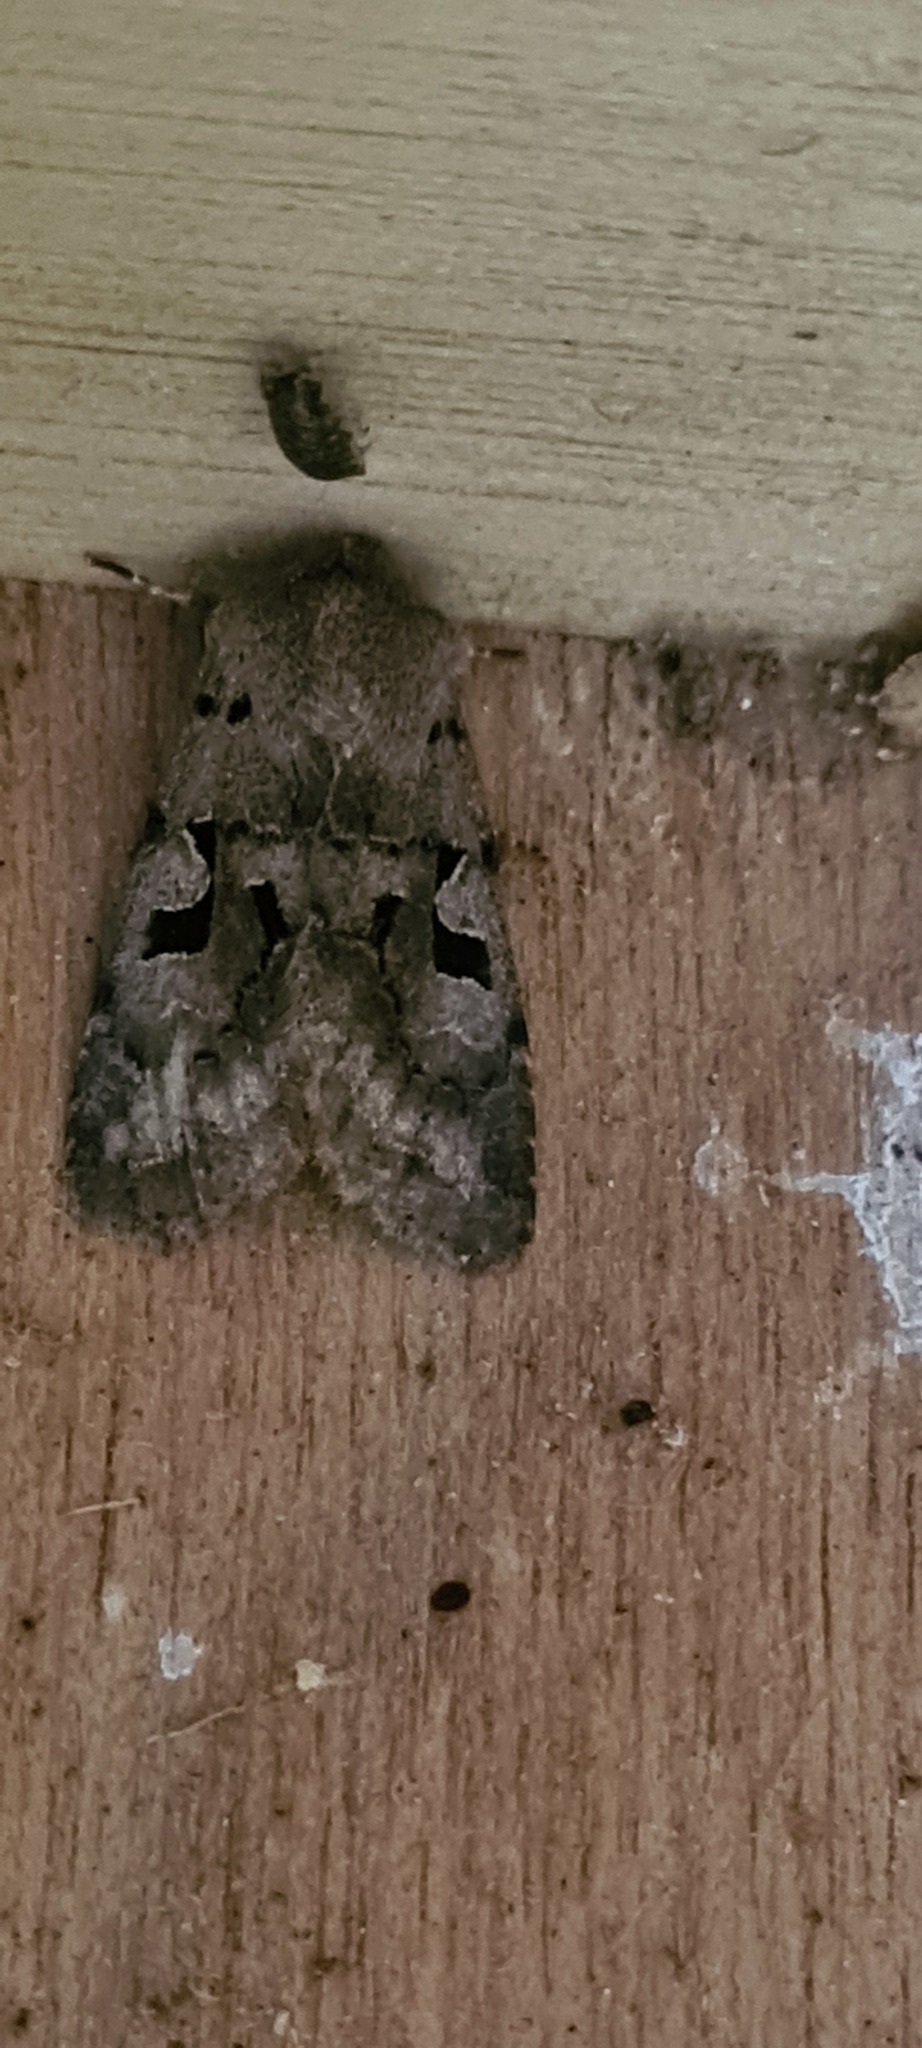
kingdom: Animalia
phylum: Arthropoda
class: Insecta
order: Lepidoptera
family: Noctuidae
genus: Orthosia
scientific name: Orthosia gothica
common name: Hebrew character
